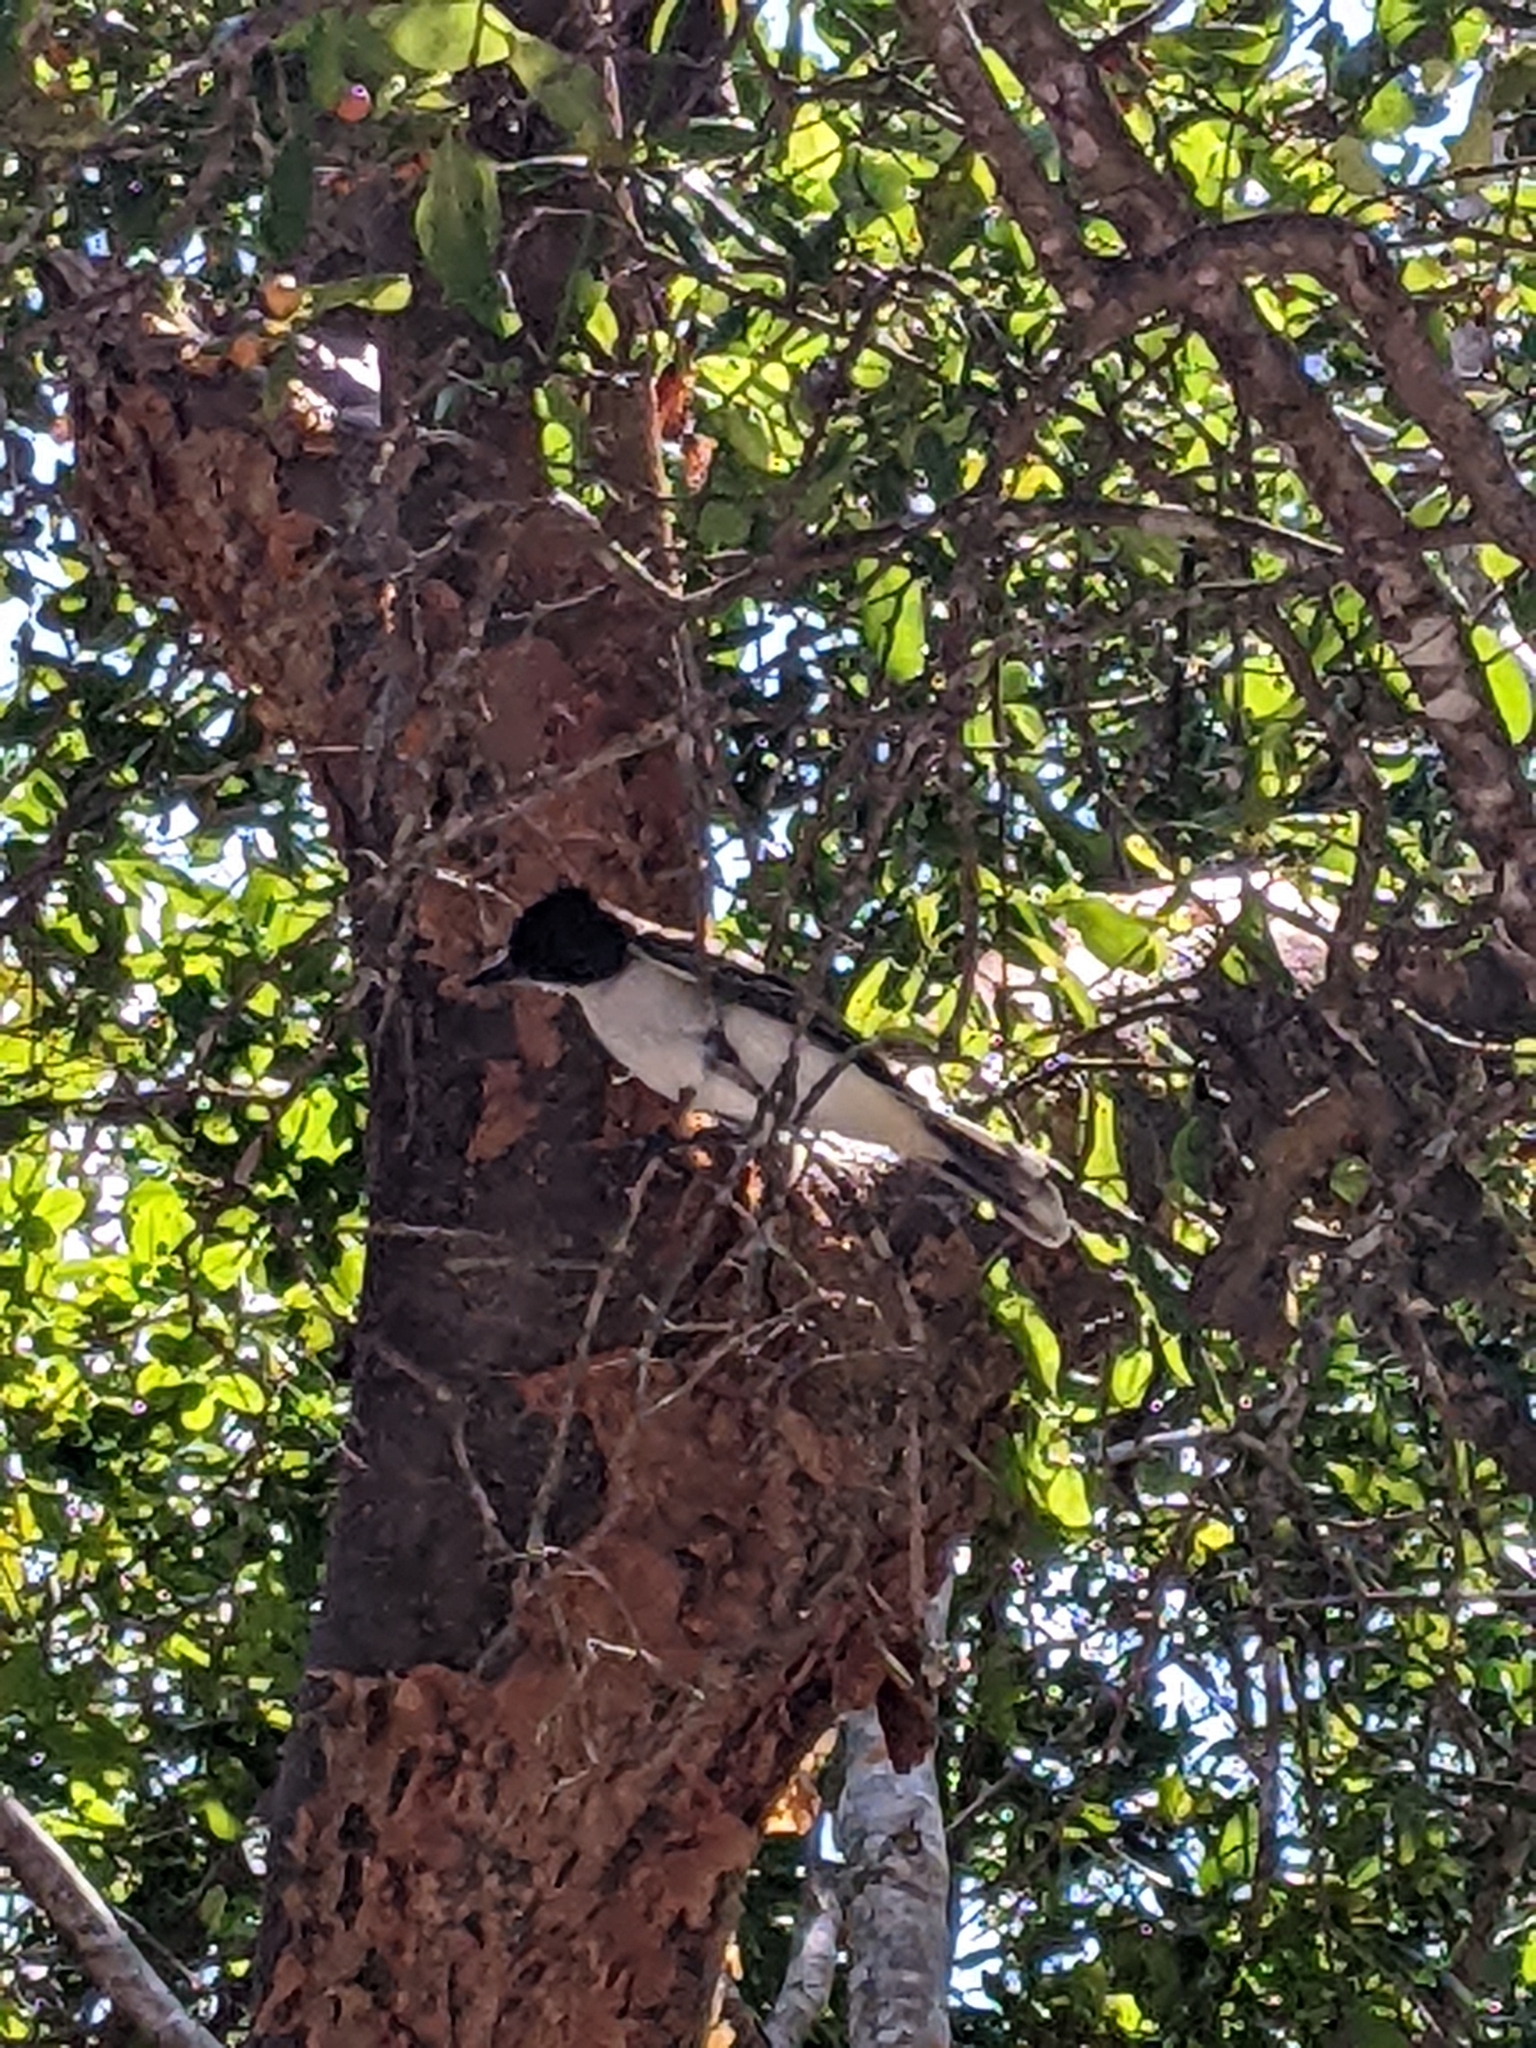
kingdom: Animalia
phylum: Chordata
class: Aves
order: Passeriformes
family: Tyrannidae
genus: Tyrannus
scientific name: Tyrannus caudifasciatus
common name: Loggerhead kingbird
